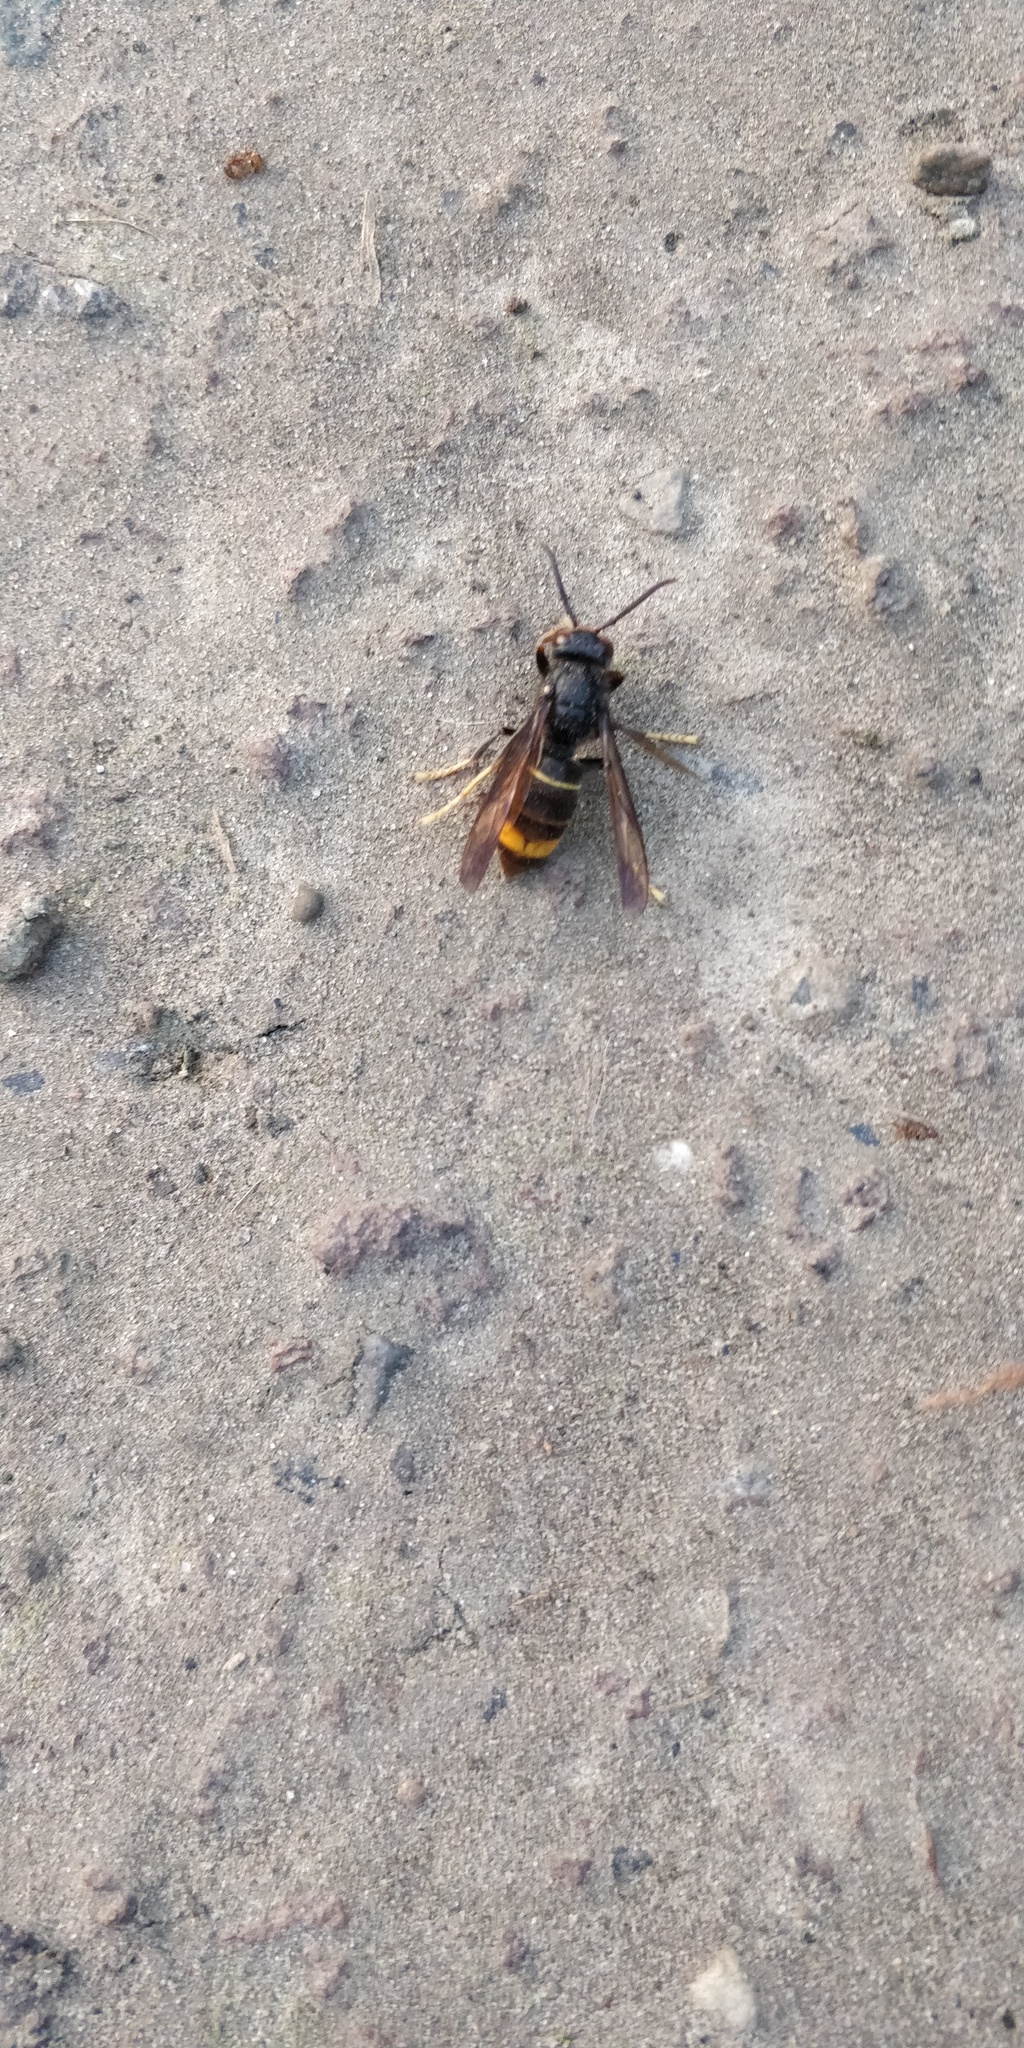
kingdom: Animalia
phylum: Arthropoda
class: Insecta
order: Hymenoptera
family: Vespidae
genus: Vespa
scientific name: Vespa velutina
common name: Asian hornet
